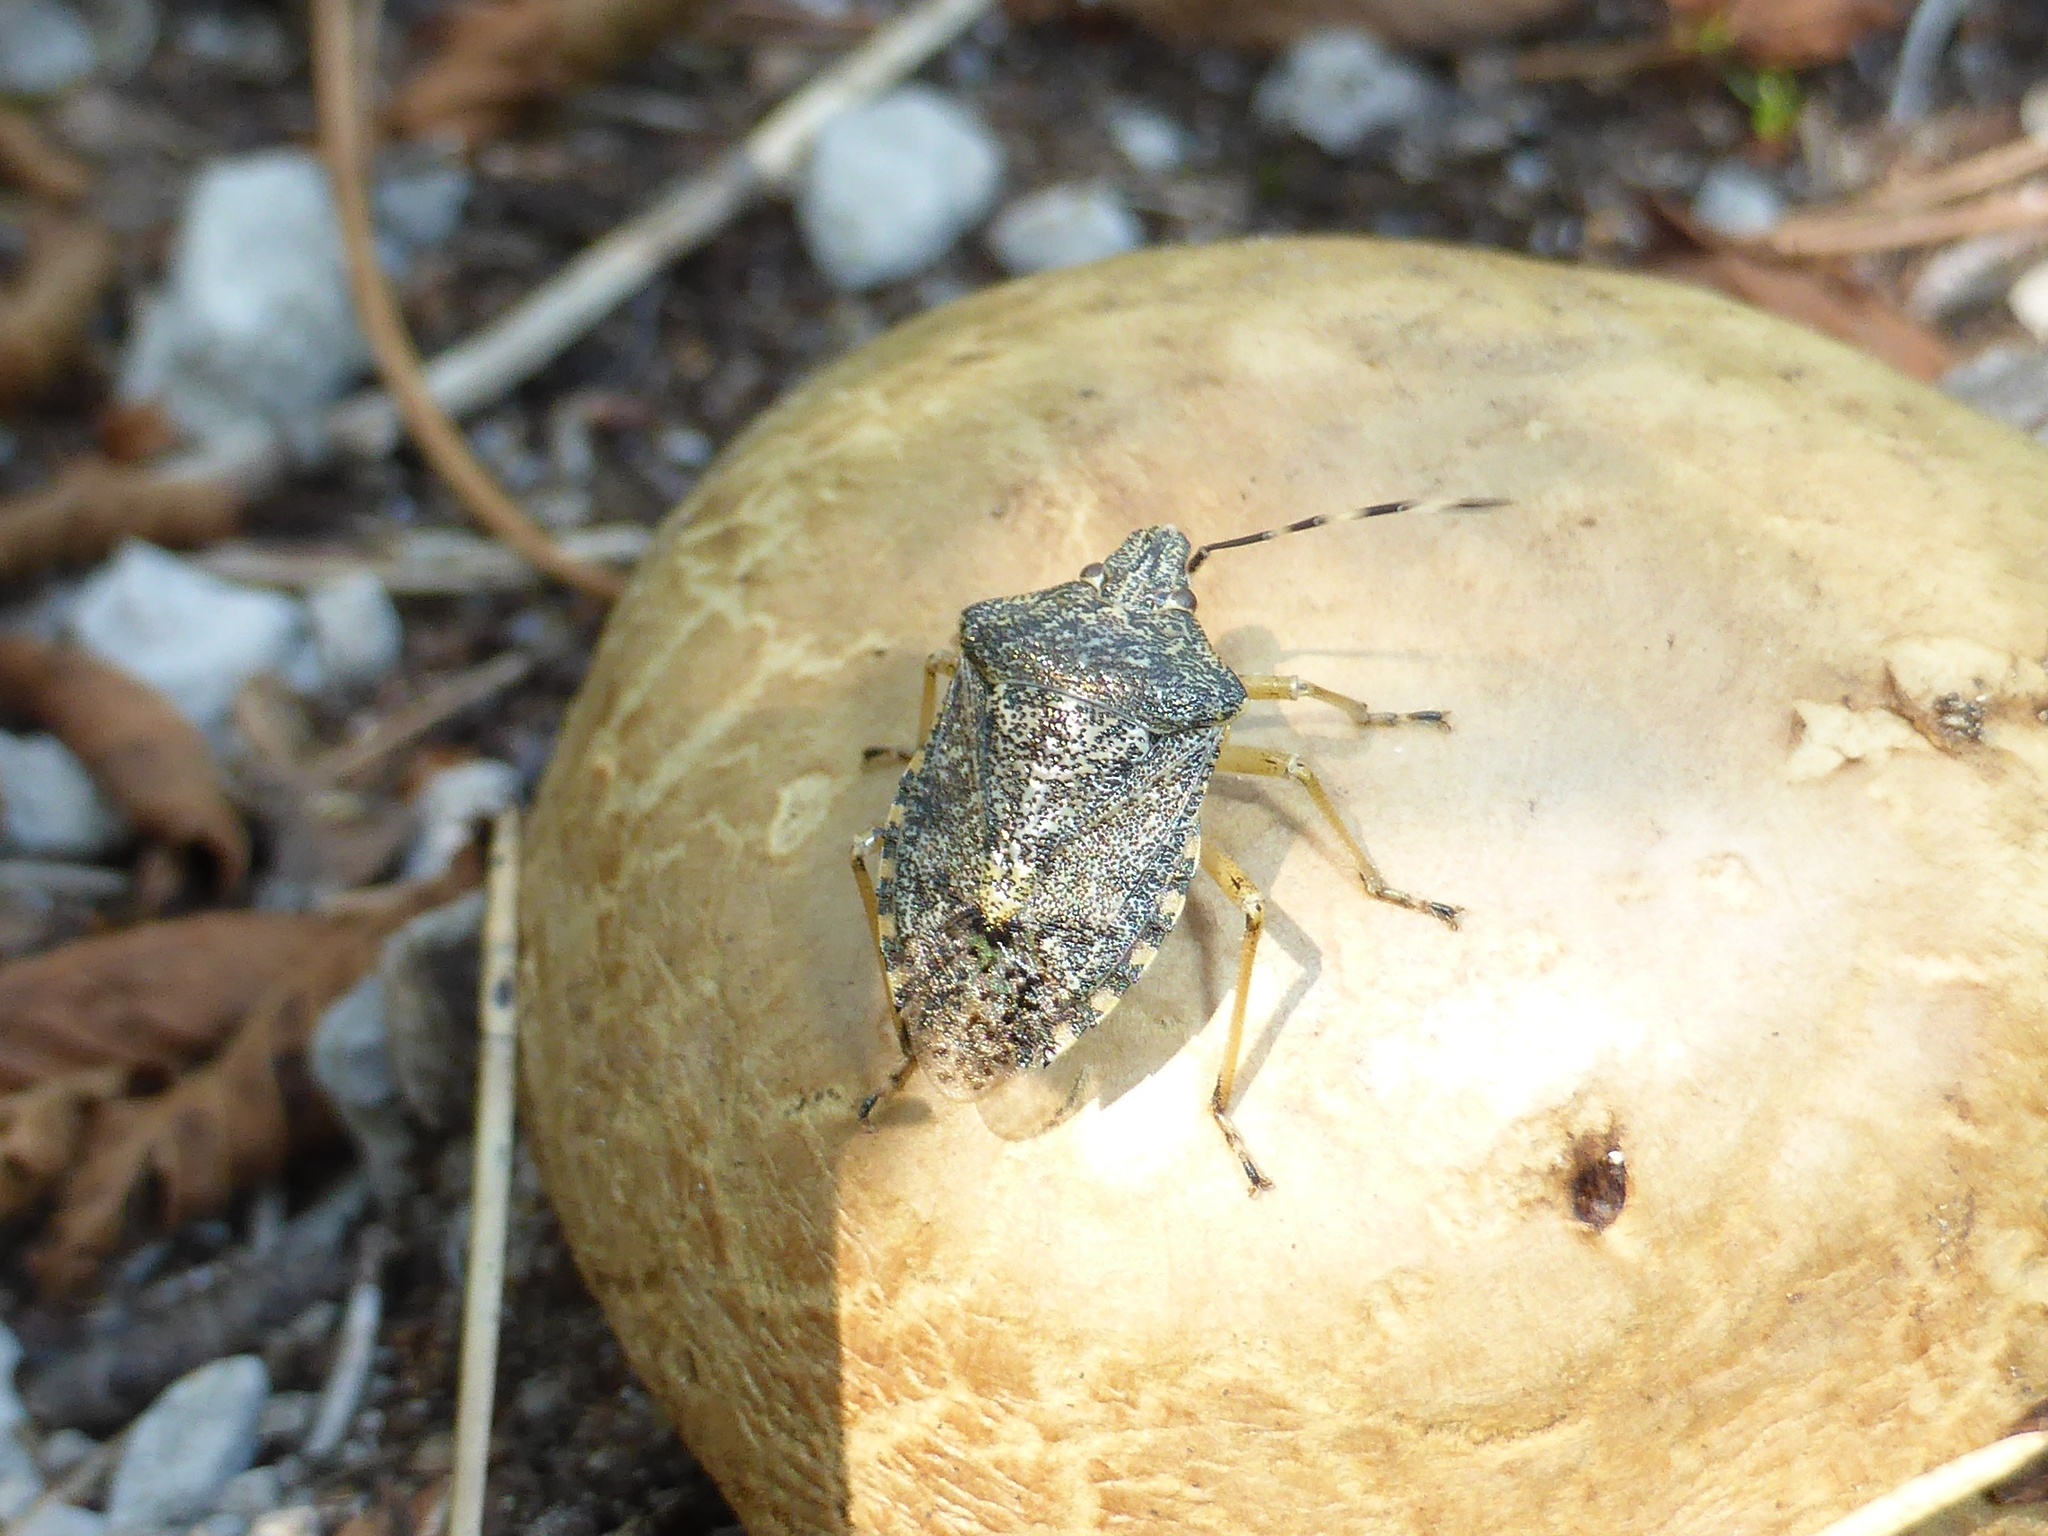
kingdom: Animalia
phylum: Arthropoda
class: Insecta
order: Hemiptera
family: Pentatomidae
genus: Rhaphigaster
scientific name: Rhaphigaster nebulosa
